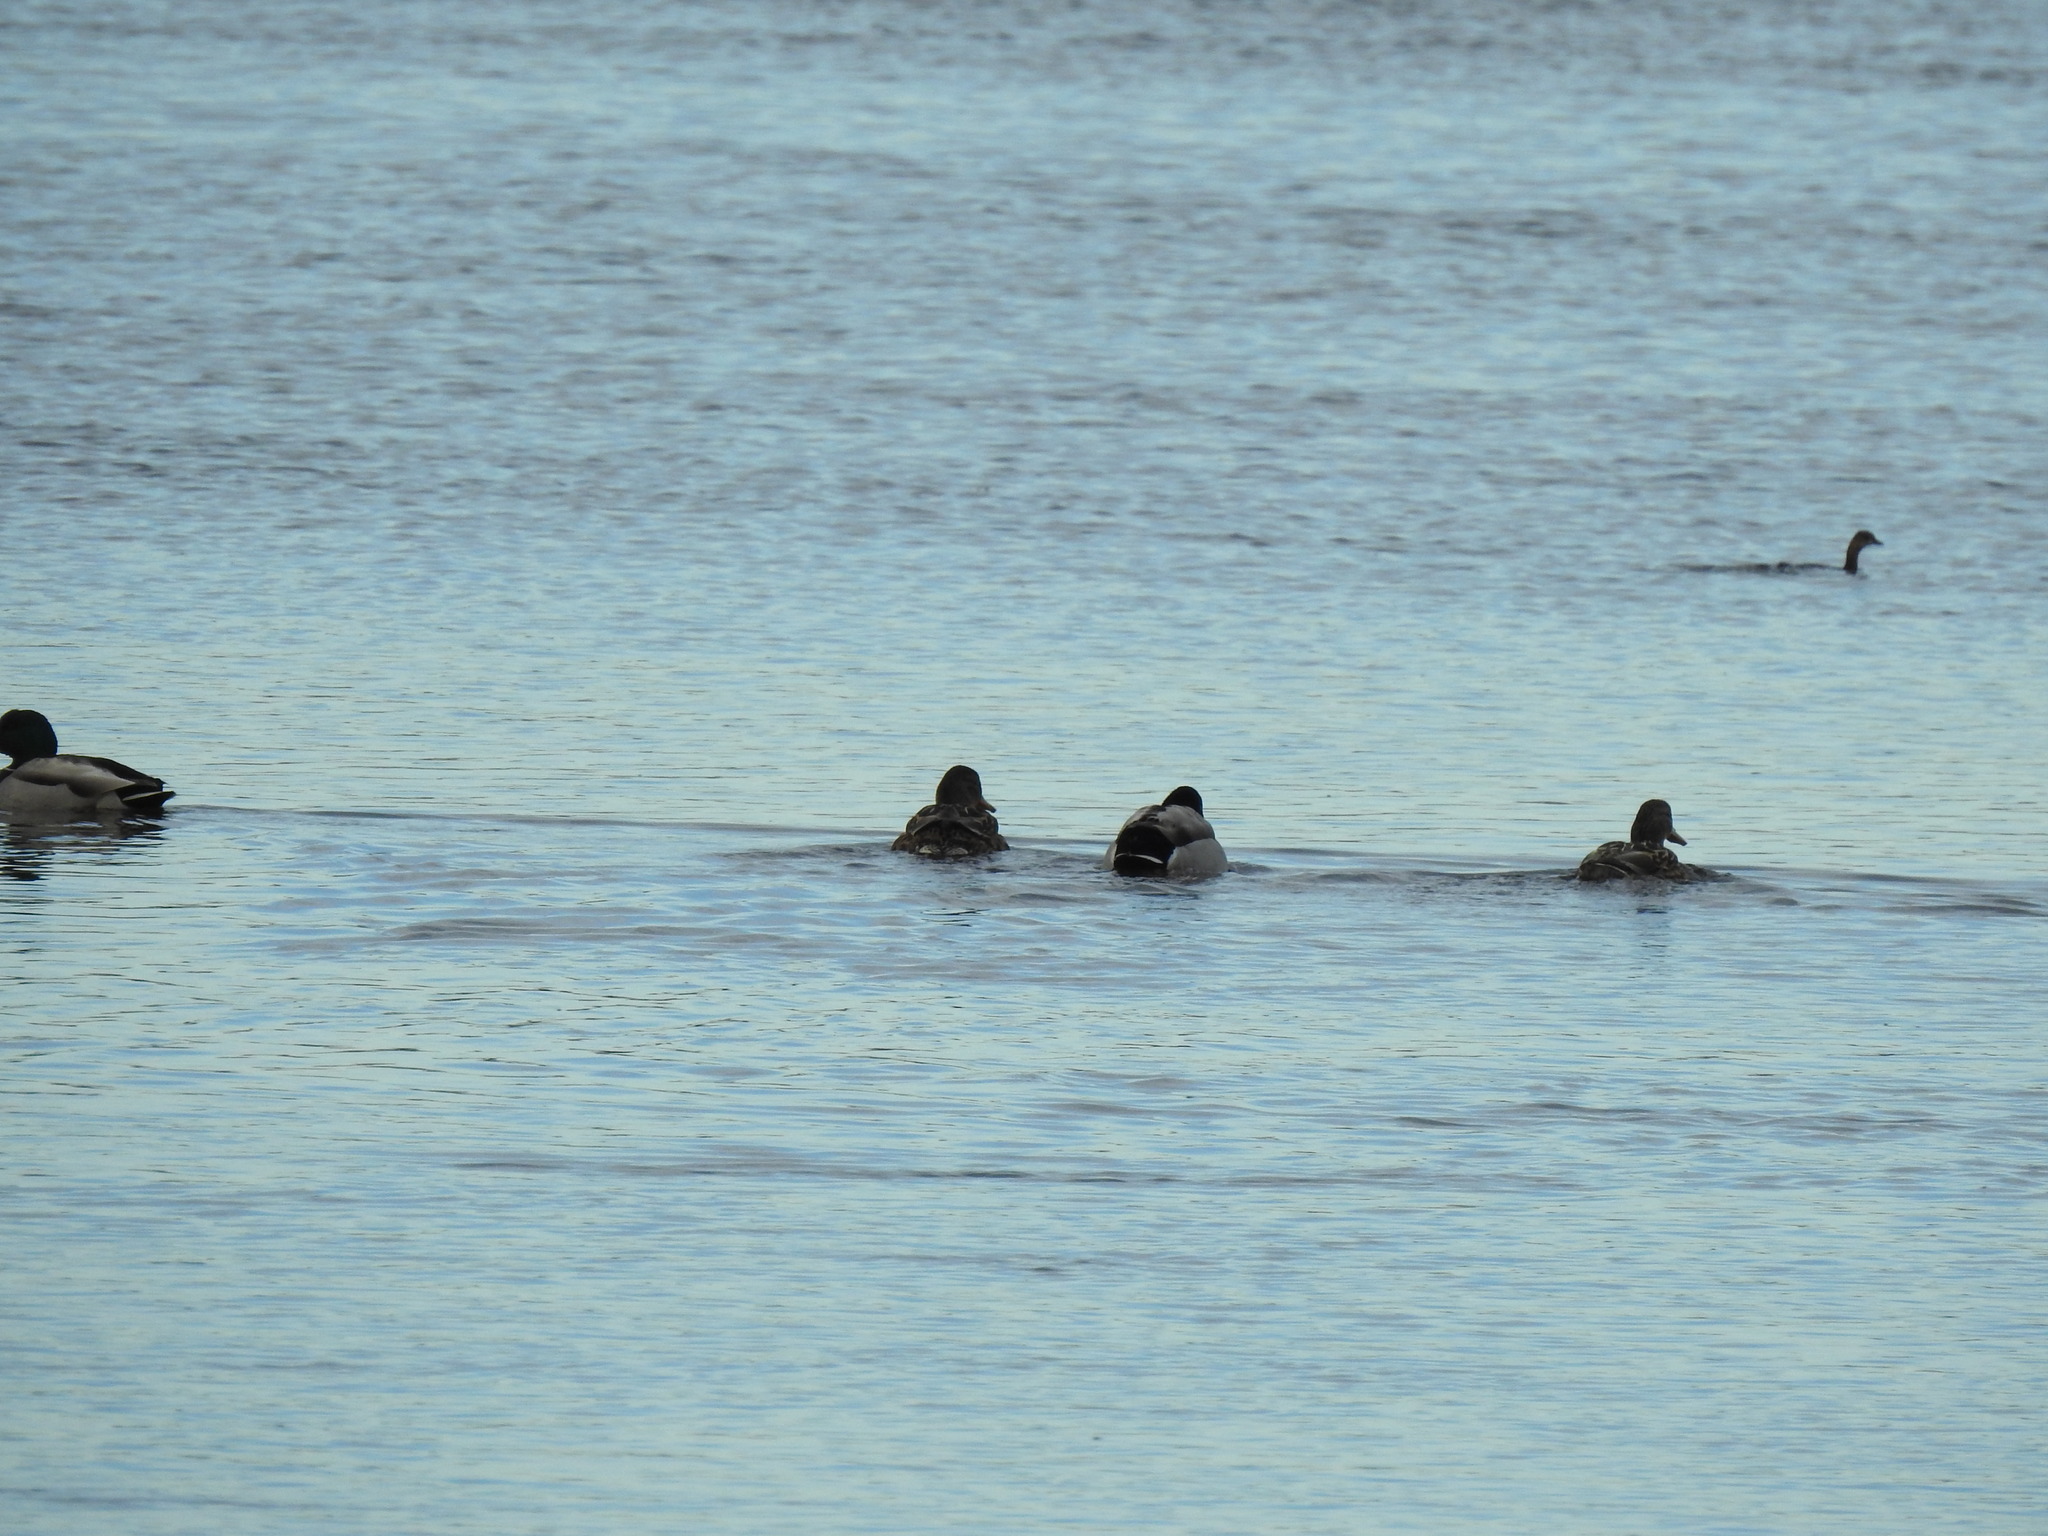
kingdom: Animalia
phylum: Chordata
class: Aves
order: Anseriformes
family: Anatidae
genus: Anas
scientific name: Anas platyrhynchos
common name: Mallard
